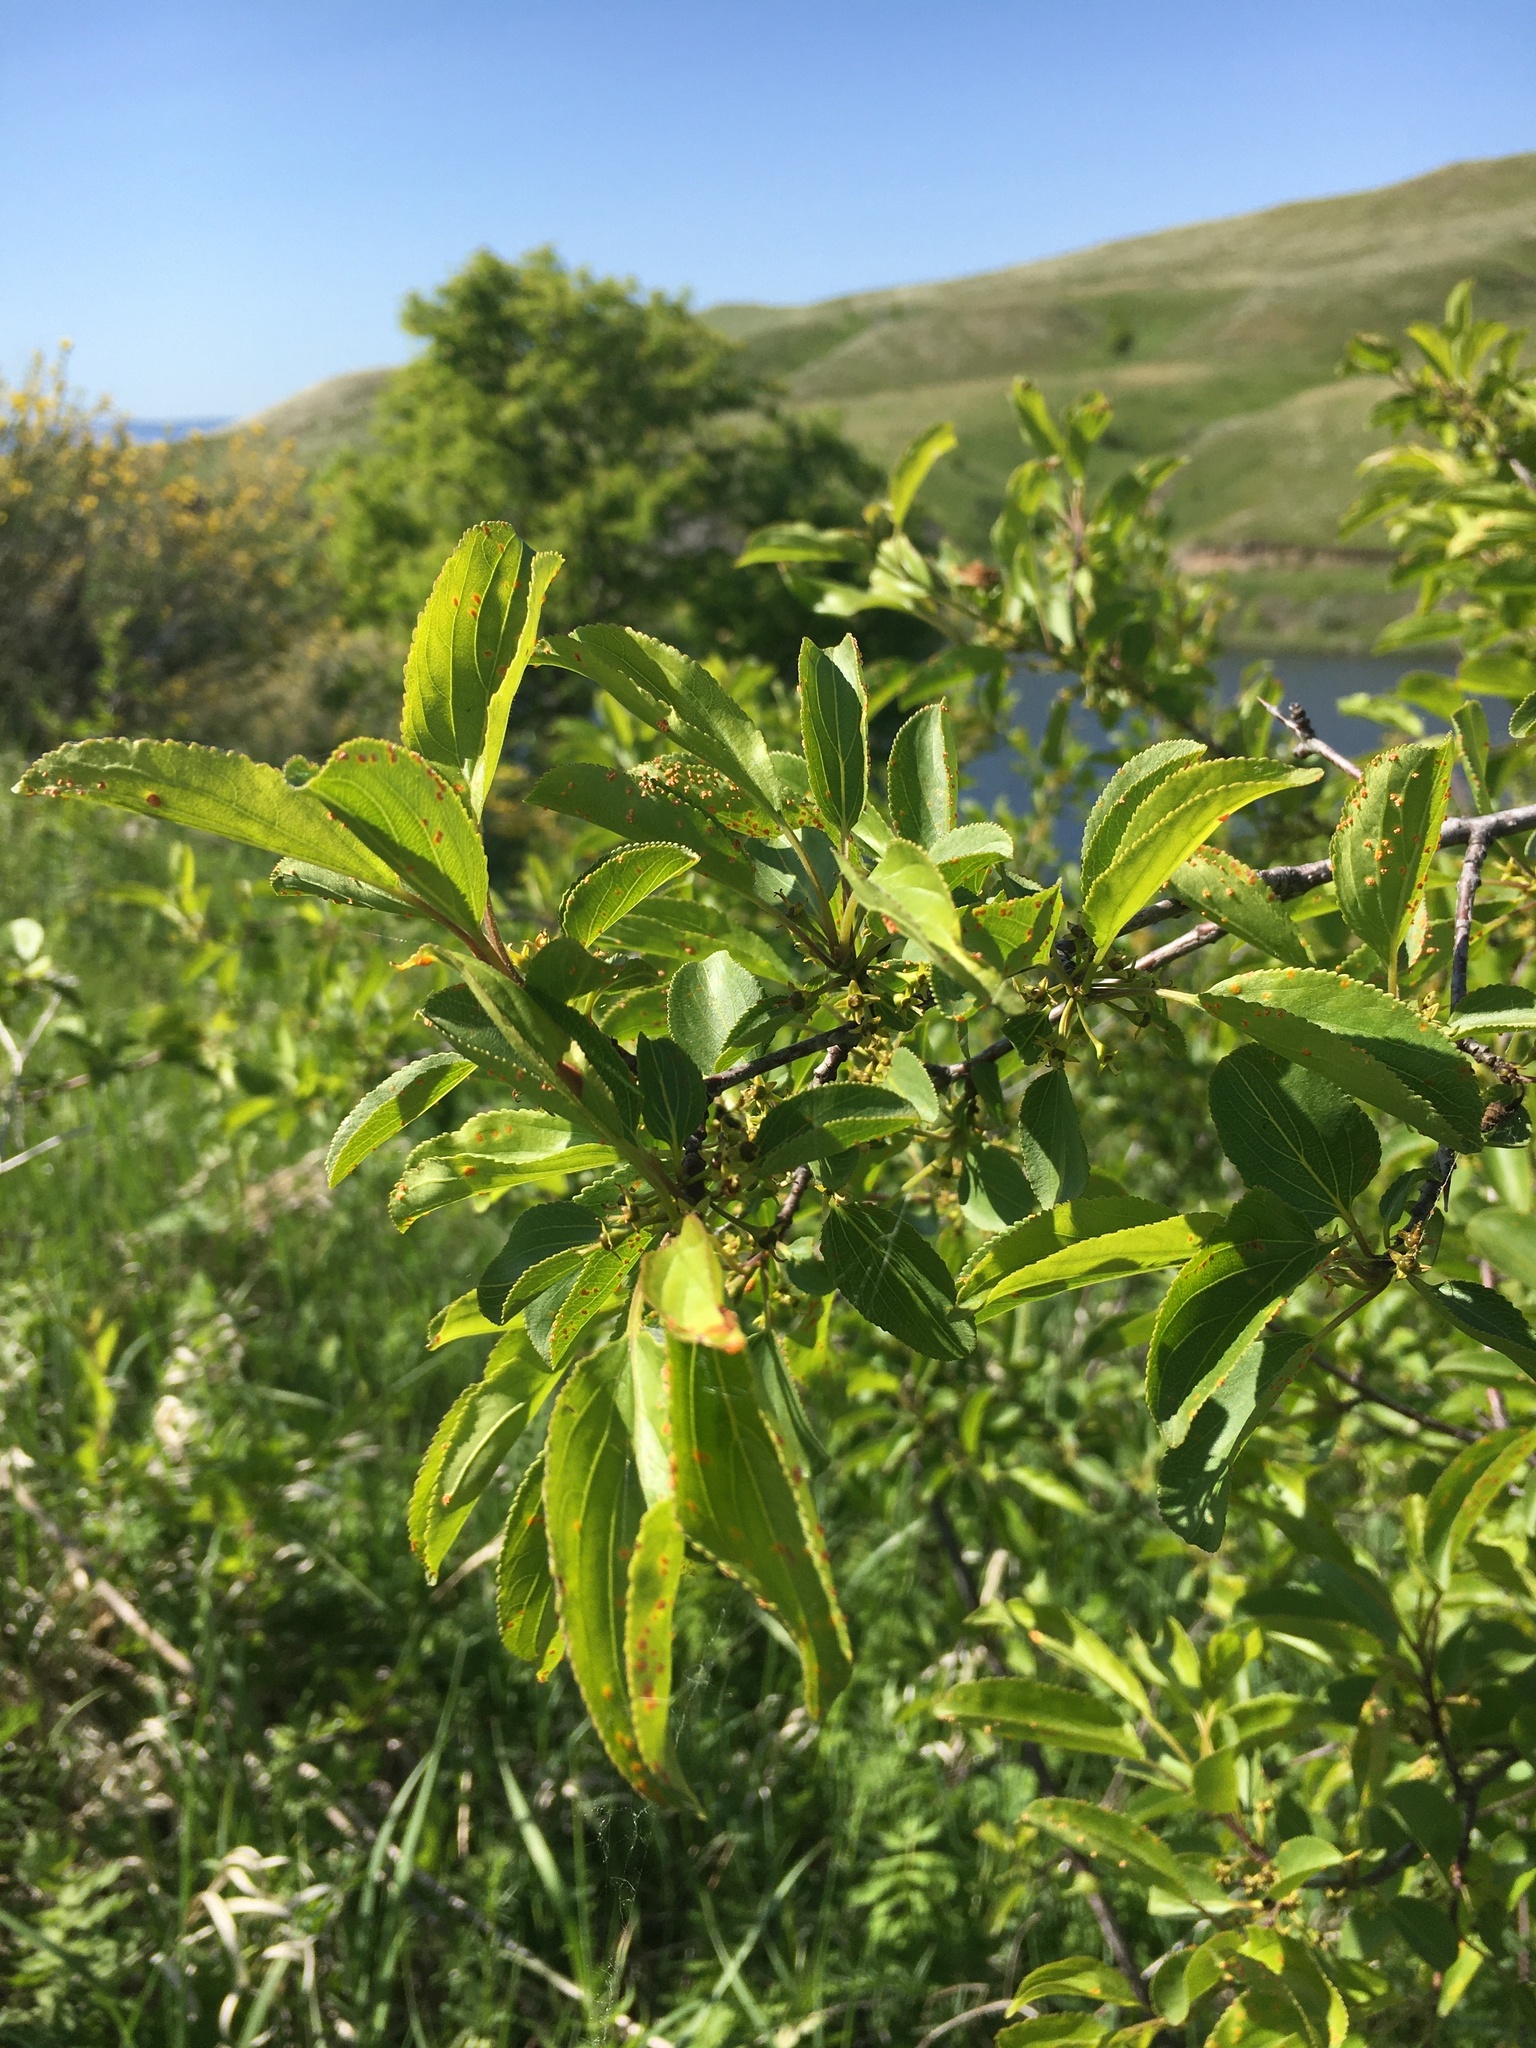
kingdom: Plantae
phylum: Tracheophyta
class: Magnoliopsida
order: Rosales
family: Rhamnaceae
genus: Rhamnus
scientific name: Rhamnus cathartica
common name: Common buckthorn
